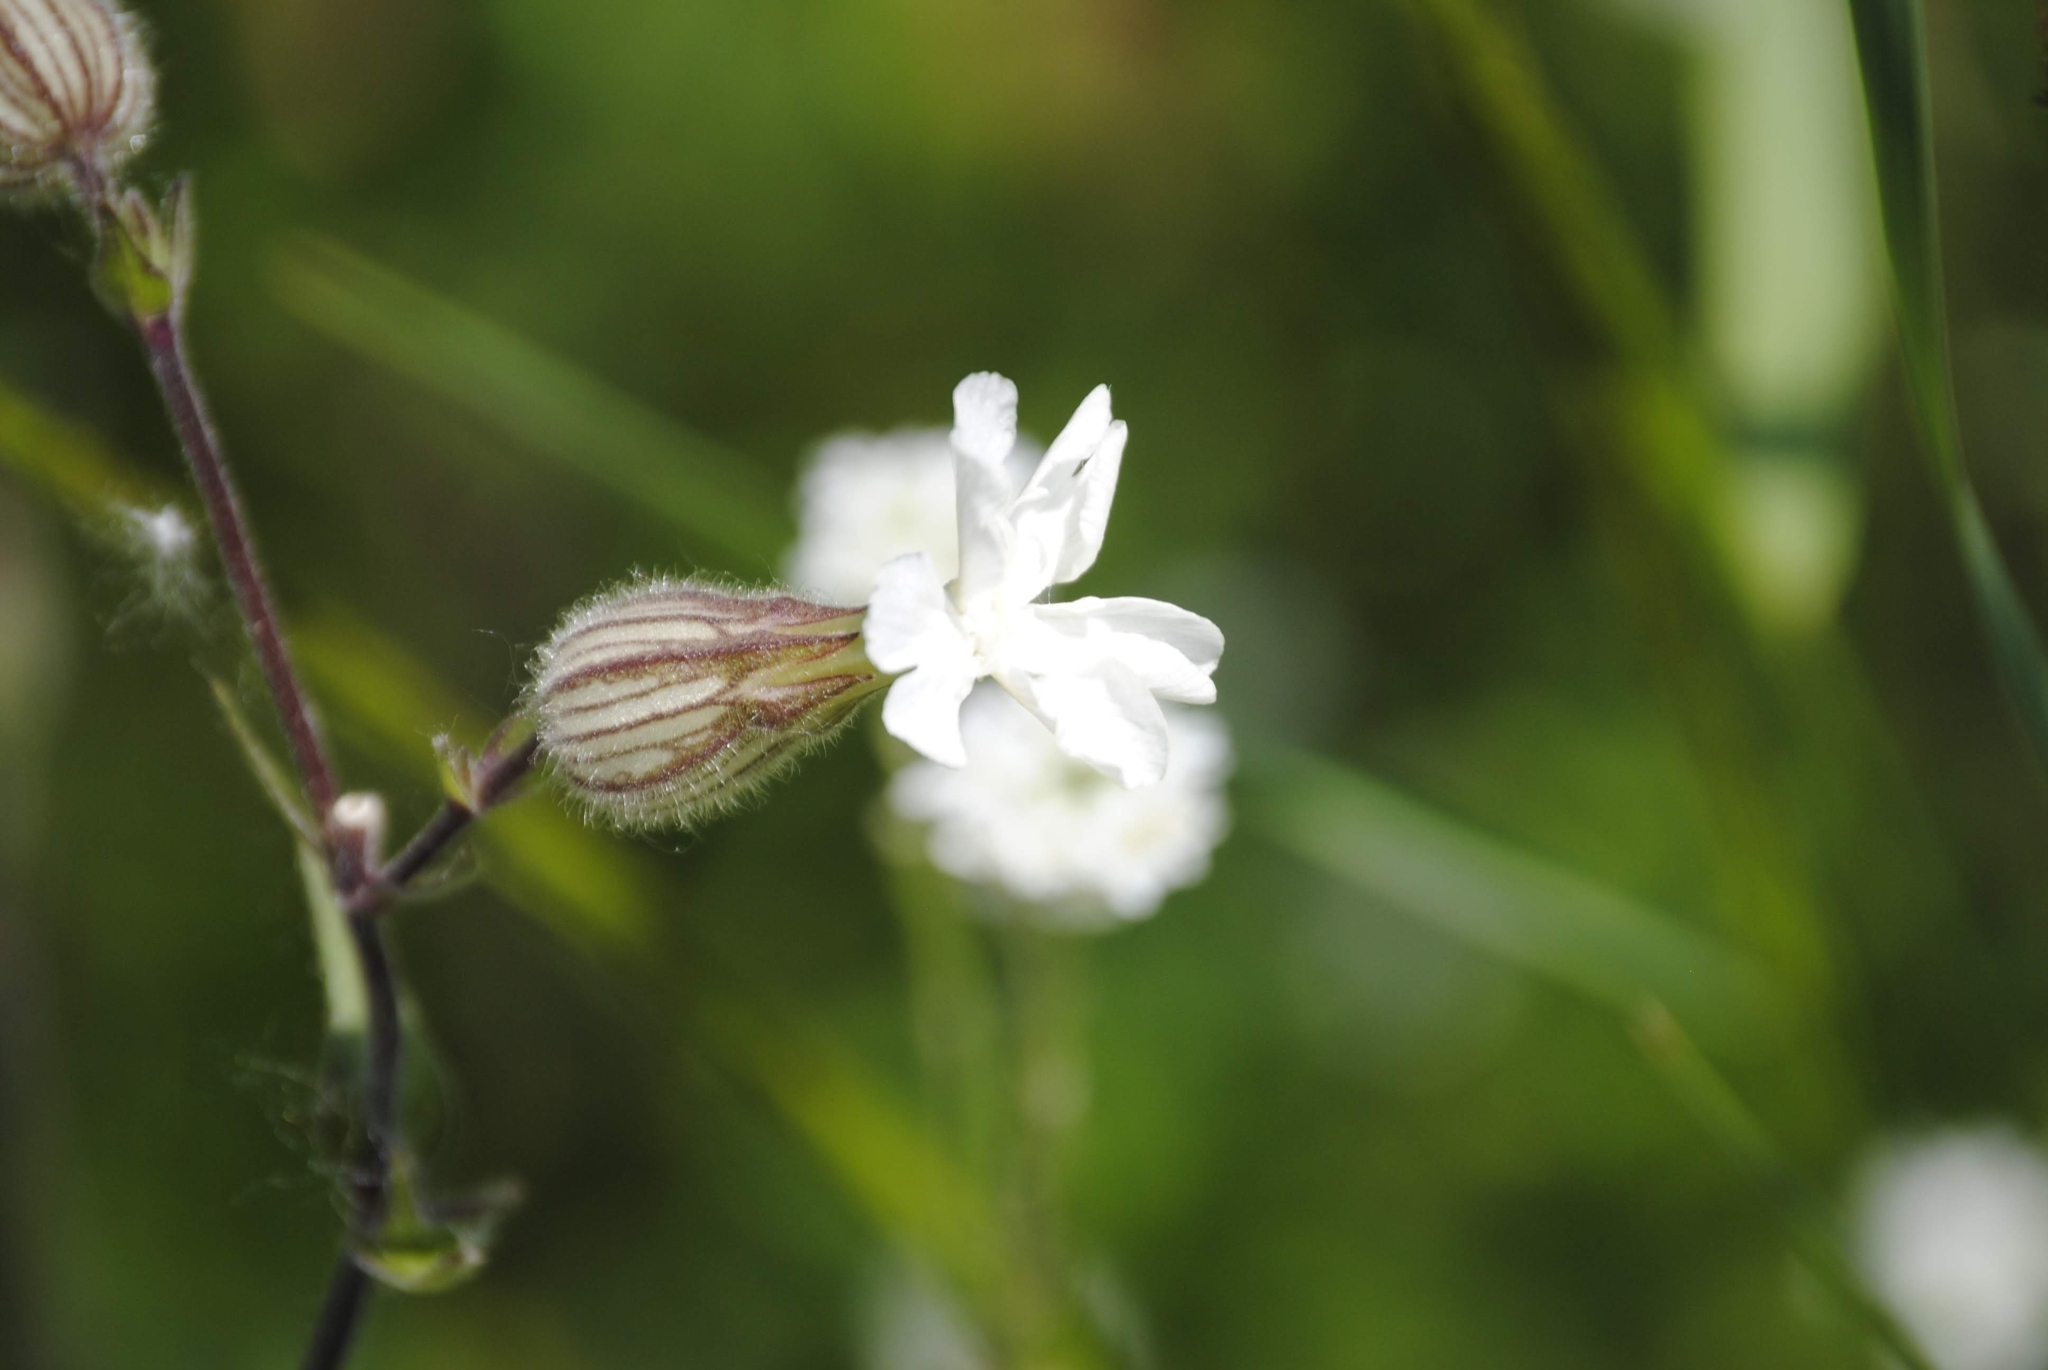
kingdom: Plantae
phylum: Tracheophyta
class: Magnoliopsida
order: Caryophyllales
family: Caryophyllaceae
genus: Silene
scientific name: Silene latifolia
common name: White campion
